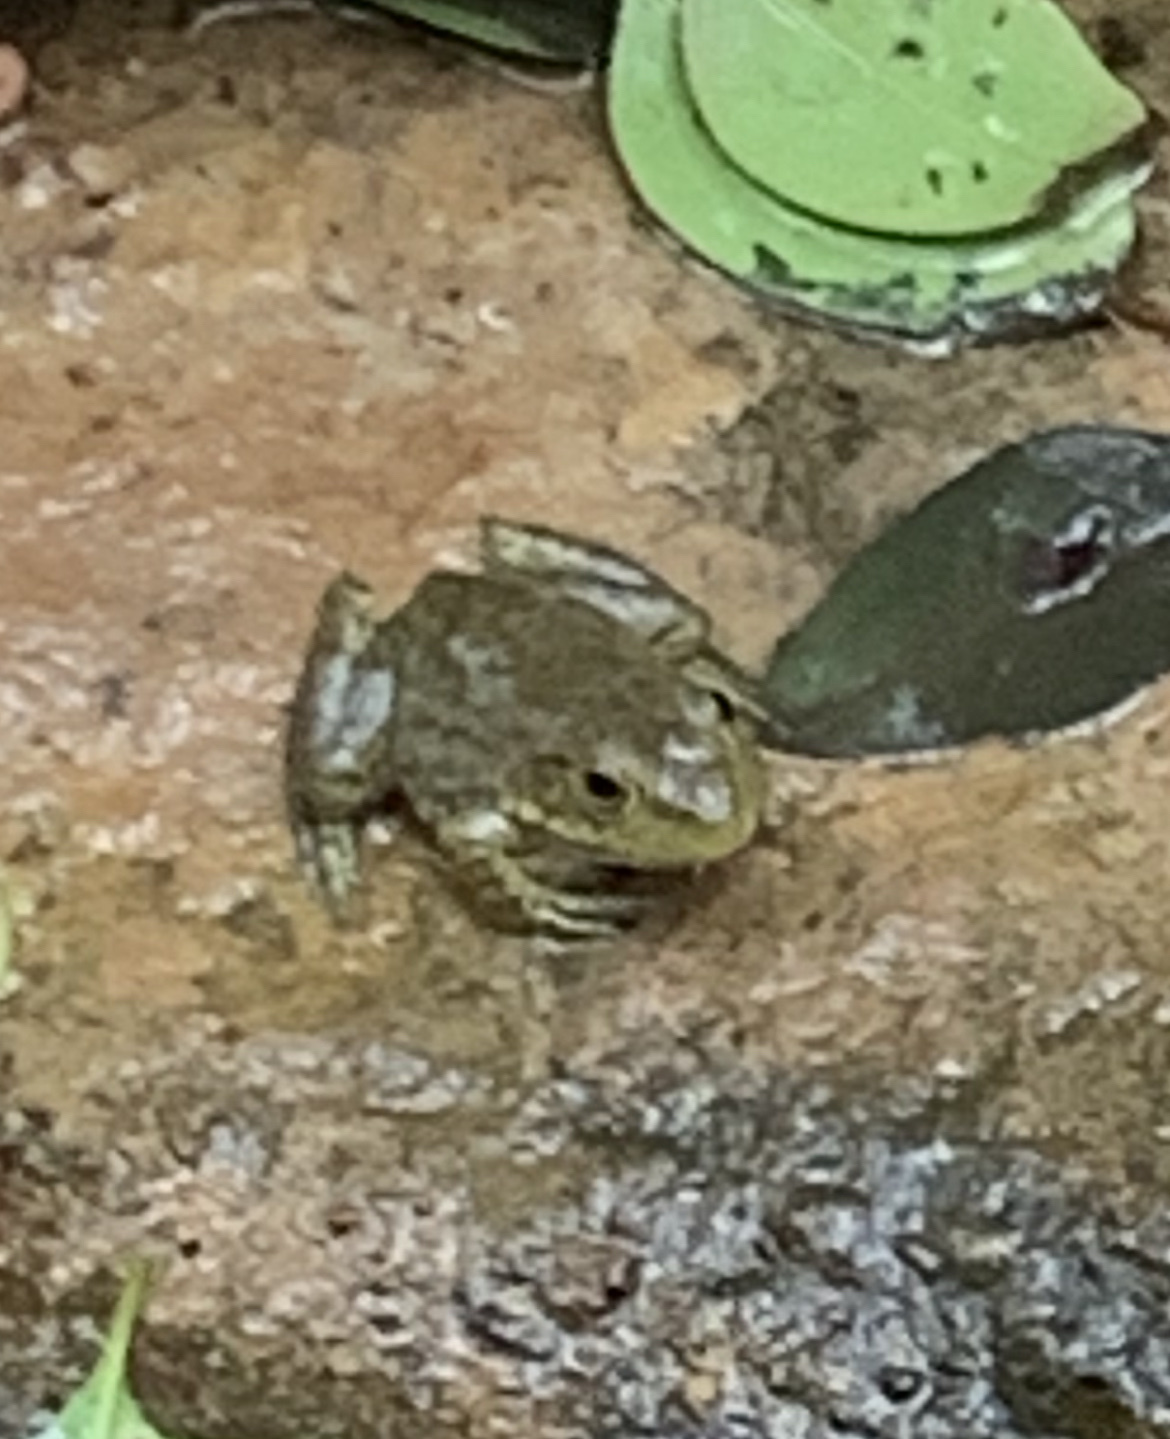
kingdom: Animalia
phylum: Chordata
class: Amphibia
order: Anura
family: Ranidae
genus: Lithobates
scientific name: Lithobates catesbeianus
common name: American bullfrog
